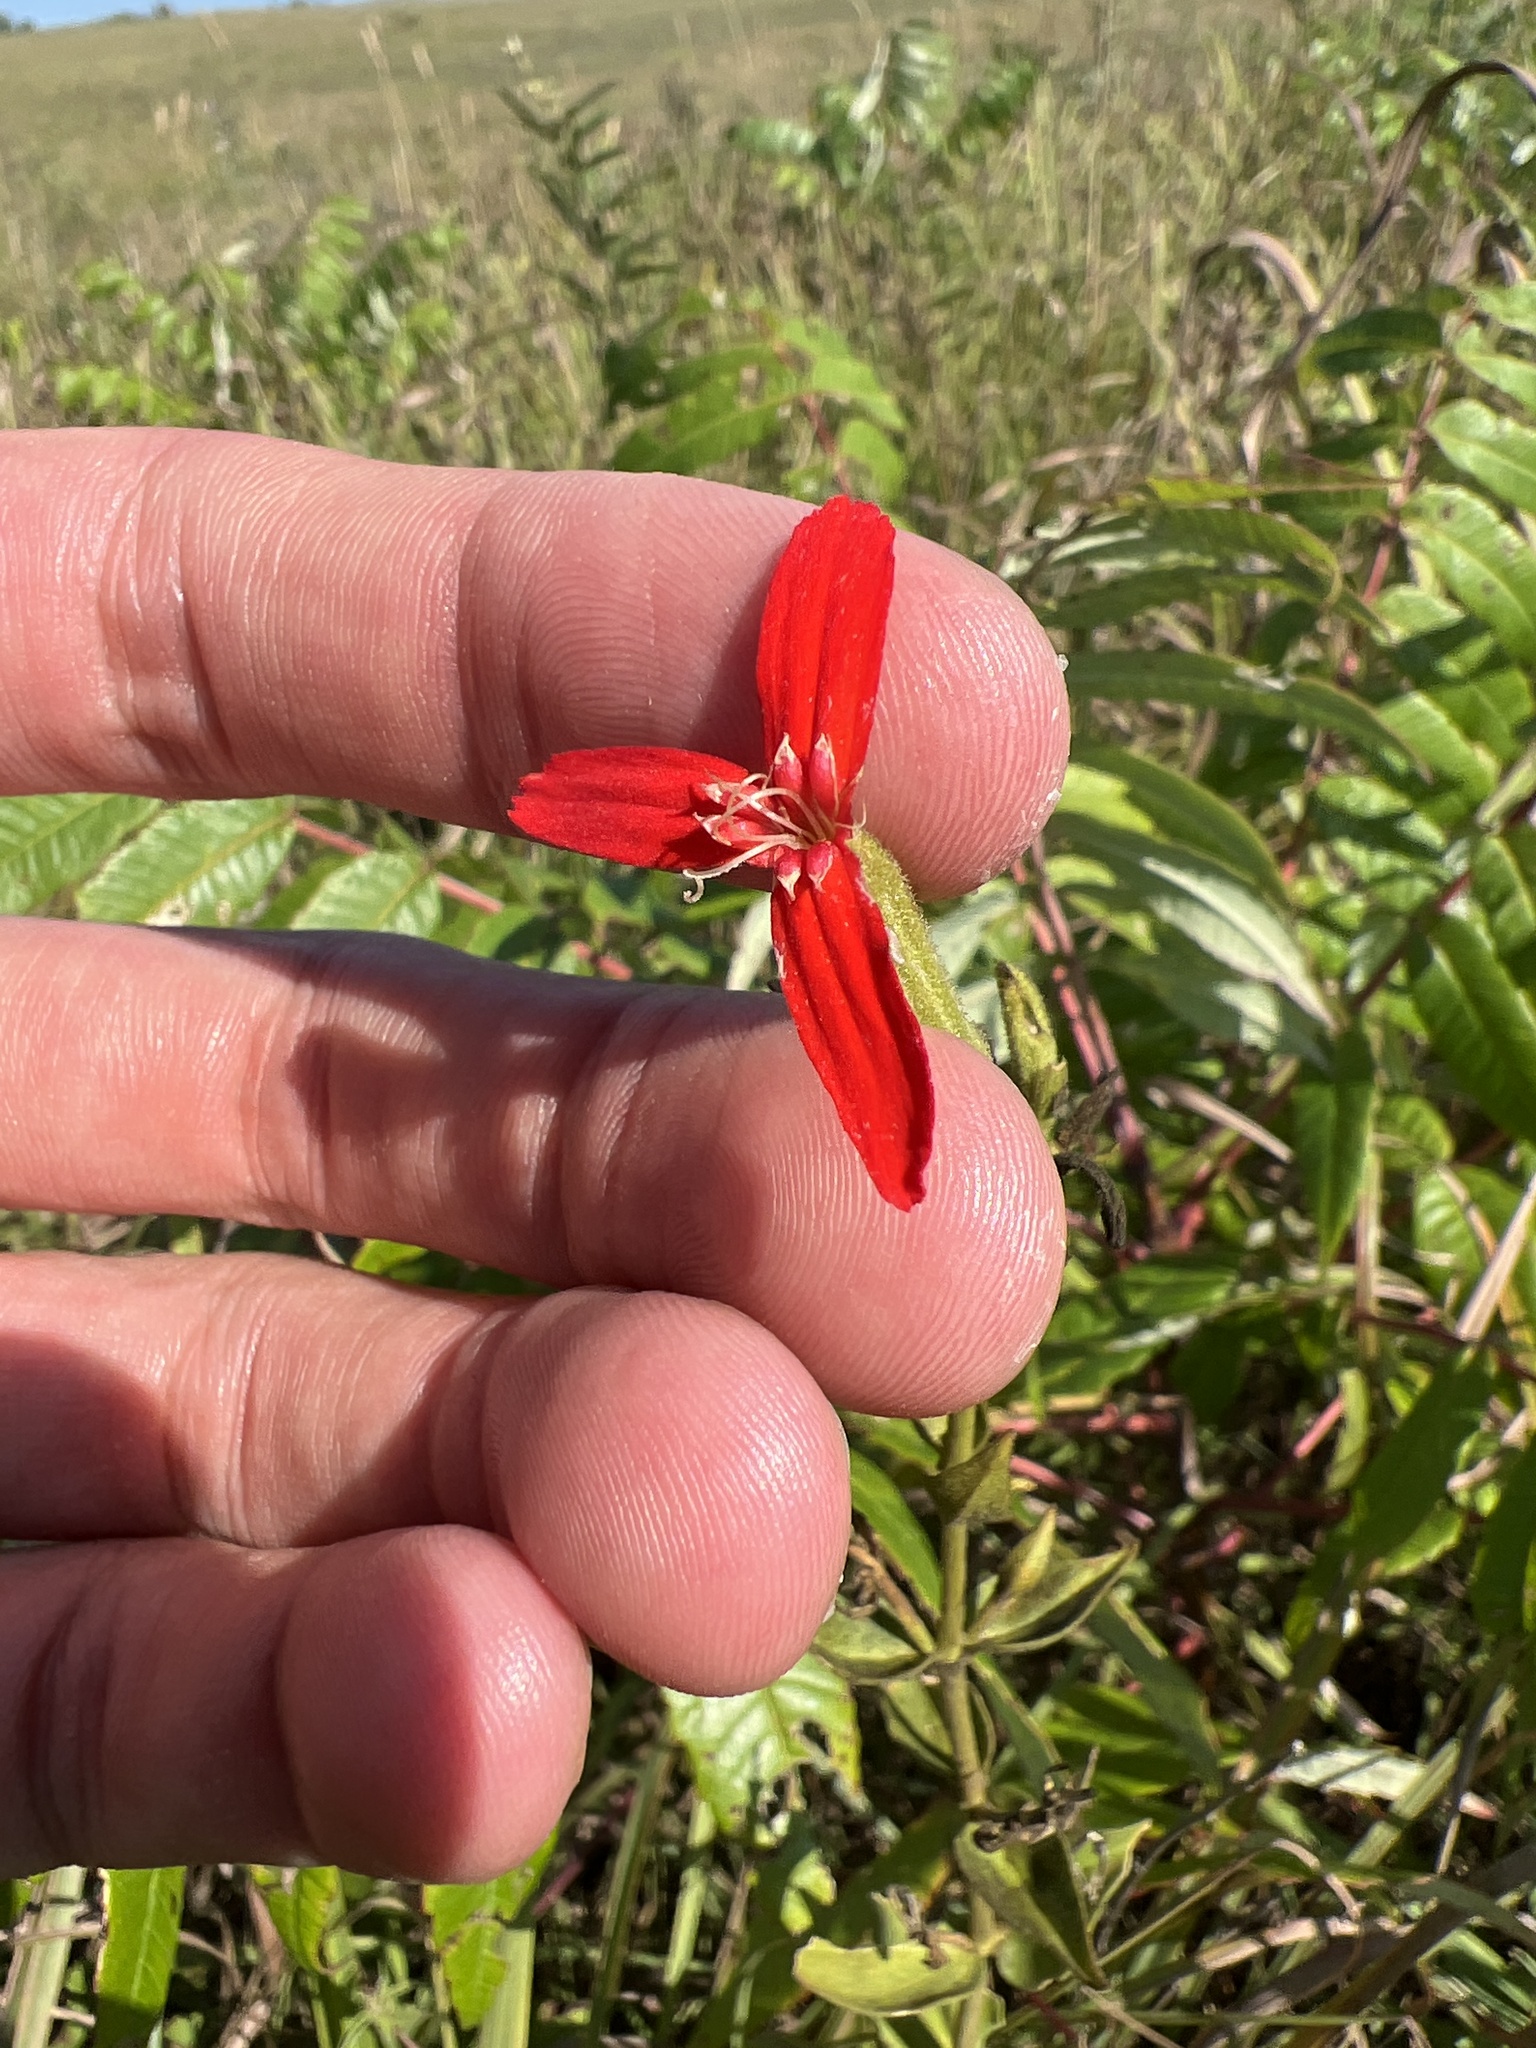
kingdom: Plantae
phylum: Tracheophyta
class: Magnoliopsida
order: Caryophyllales
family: Caryophyllaceae
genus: Silene
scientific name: Silene regia
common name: Royal catchfly
